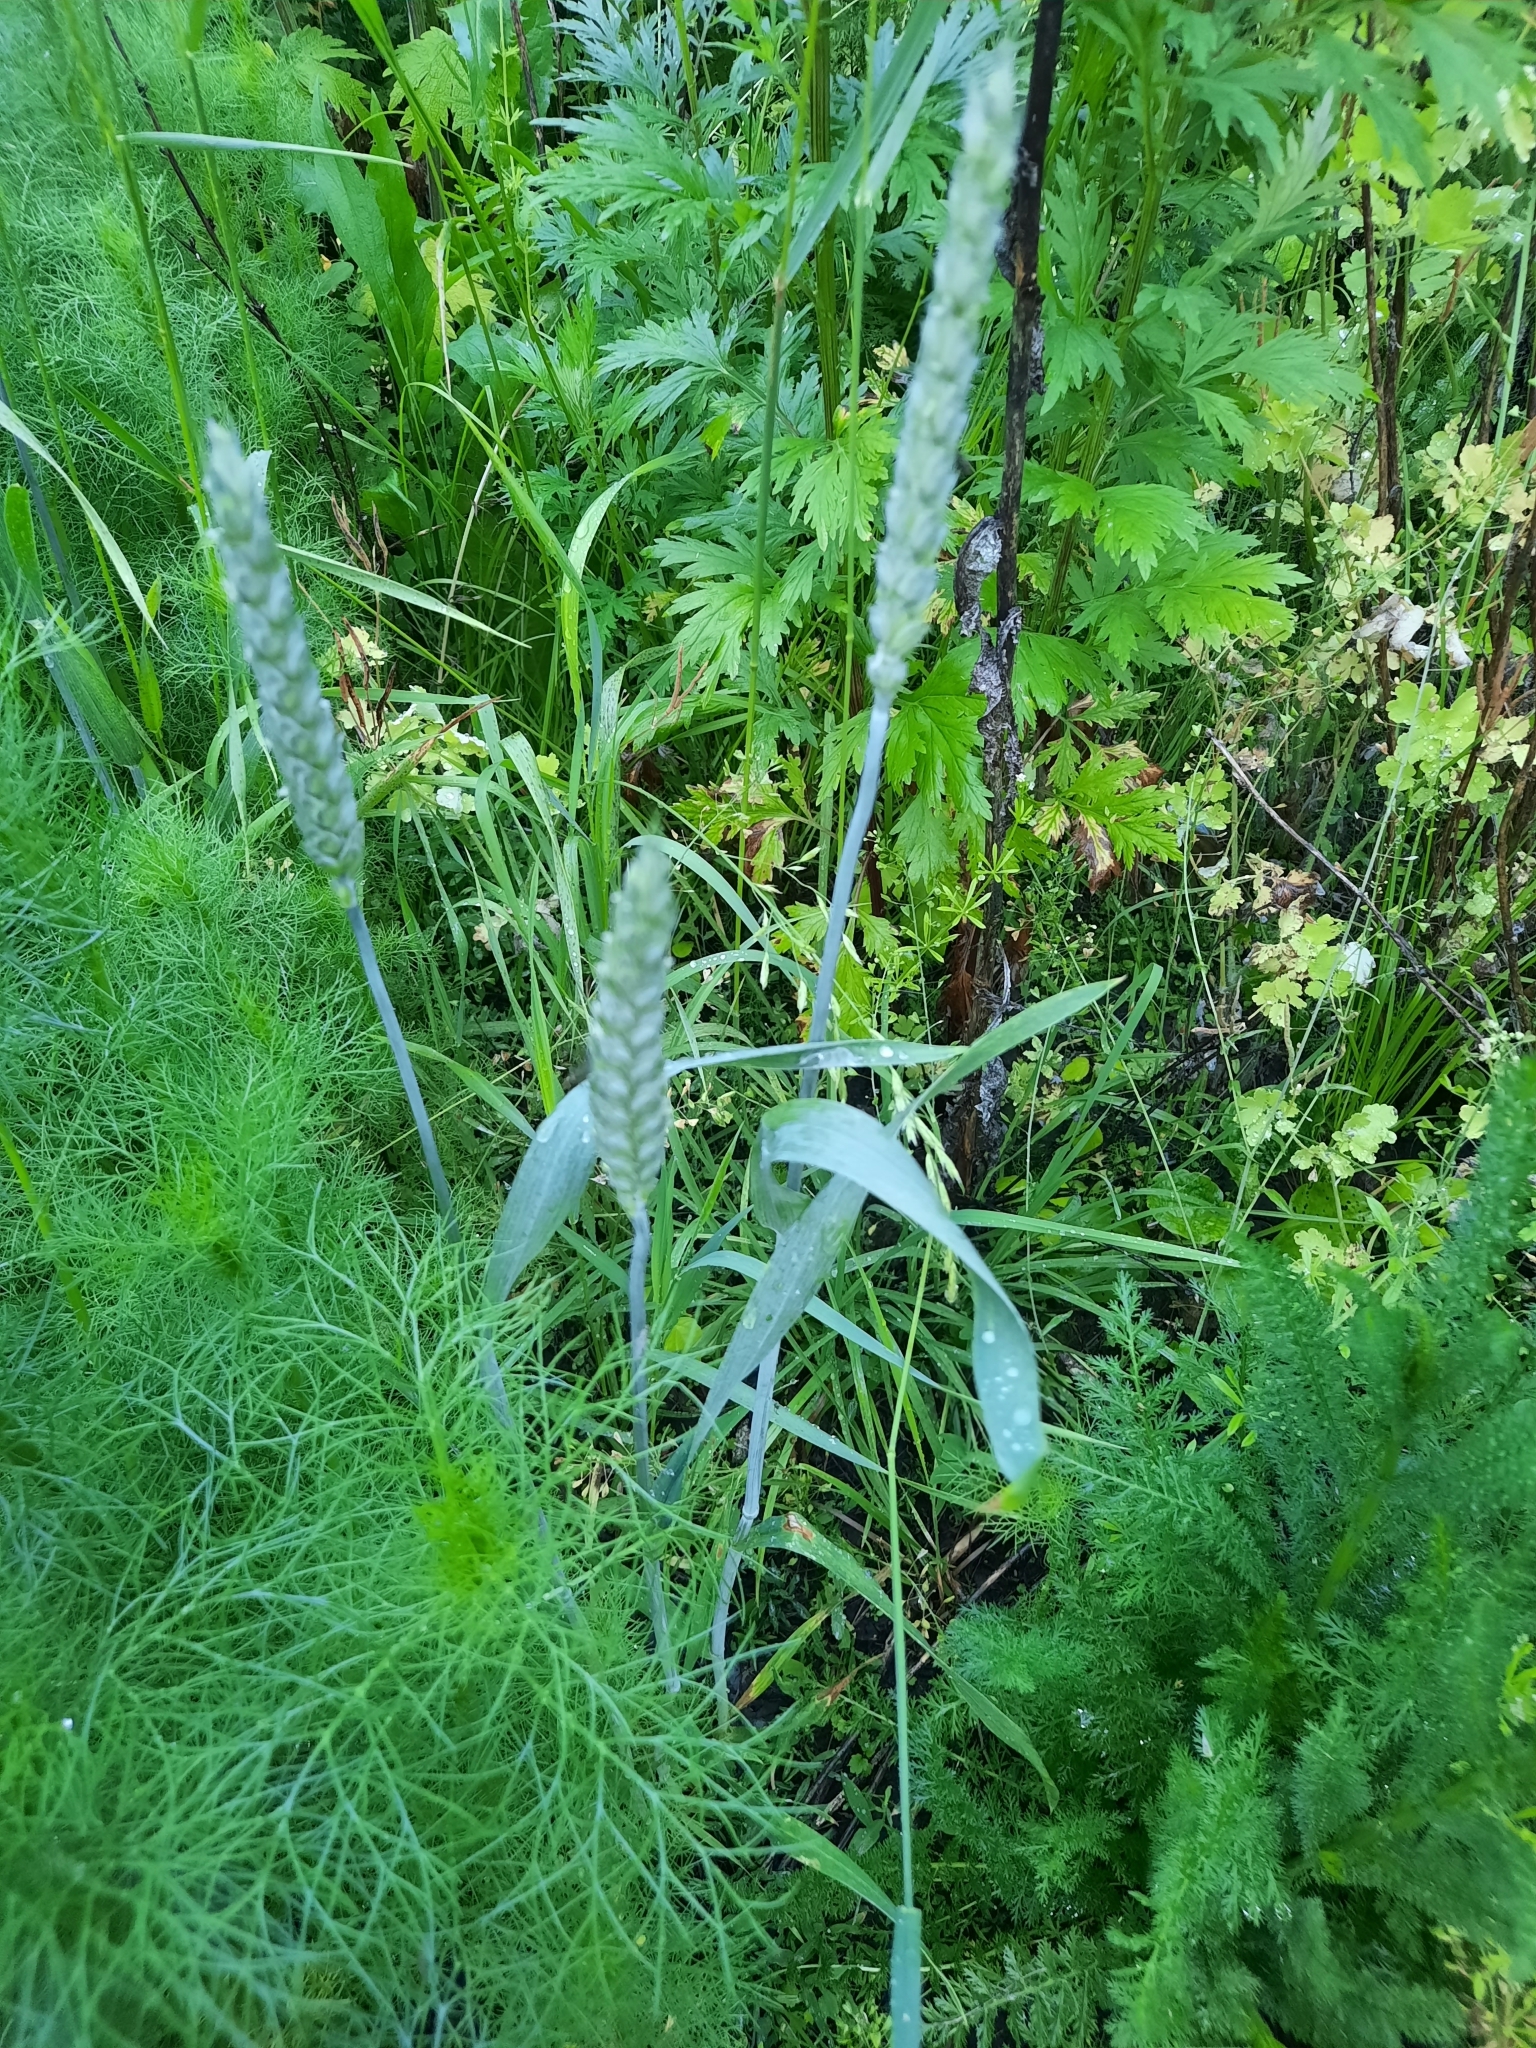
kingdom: Plantae
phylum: Tracheophyta
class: Liliopsida
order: Poales
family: Poaceae
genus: Triticum
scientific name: Triticum aestivum
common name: Common wheat
